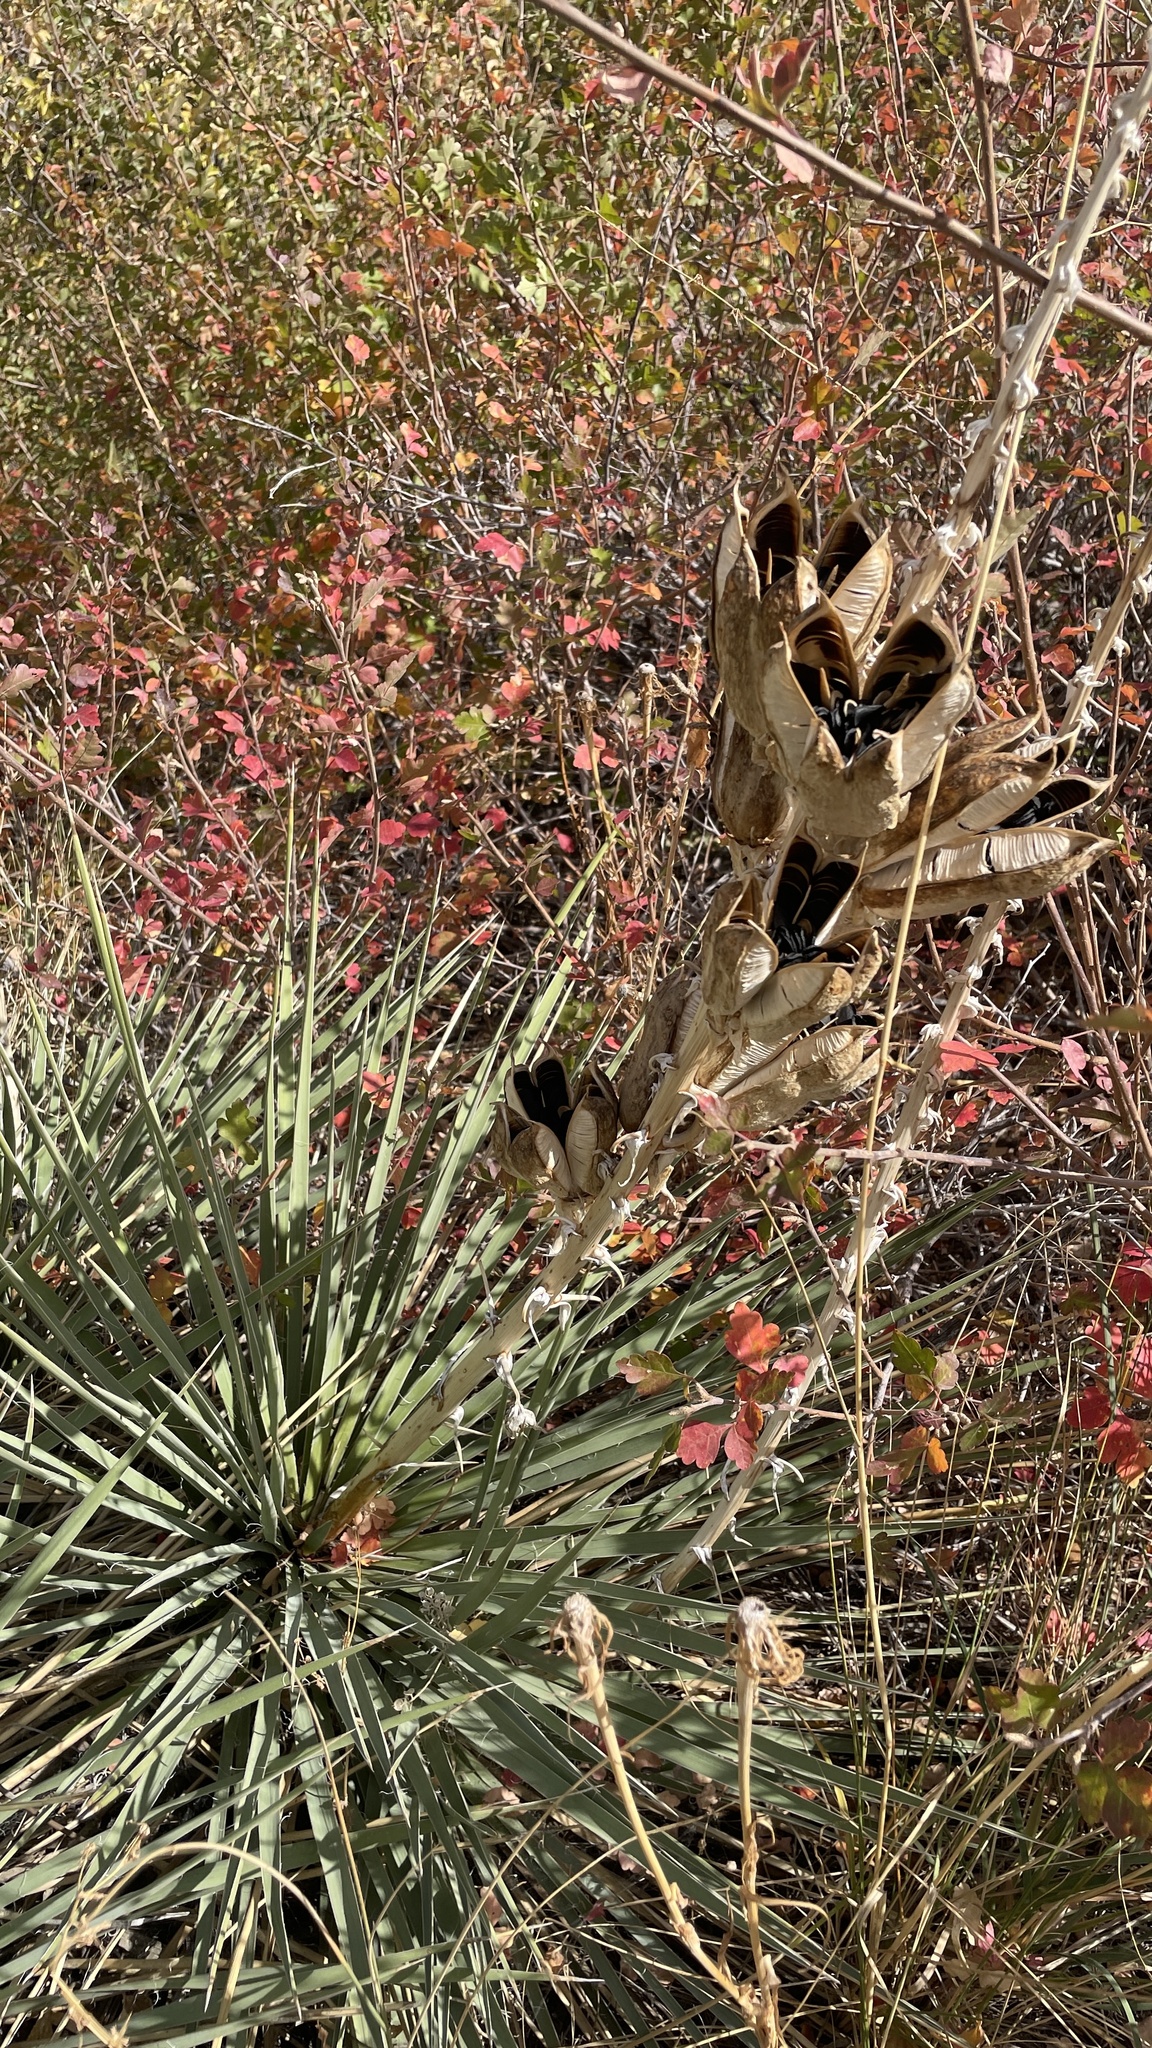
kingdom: Plantae
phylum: Tracheophyta
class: Liliopsida
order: Asparagales
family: Asparagaceae
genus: Yucca
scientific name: Yucca glauca
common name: Great plains yucca
